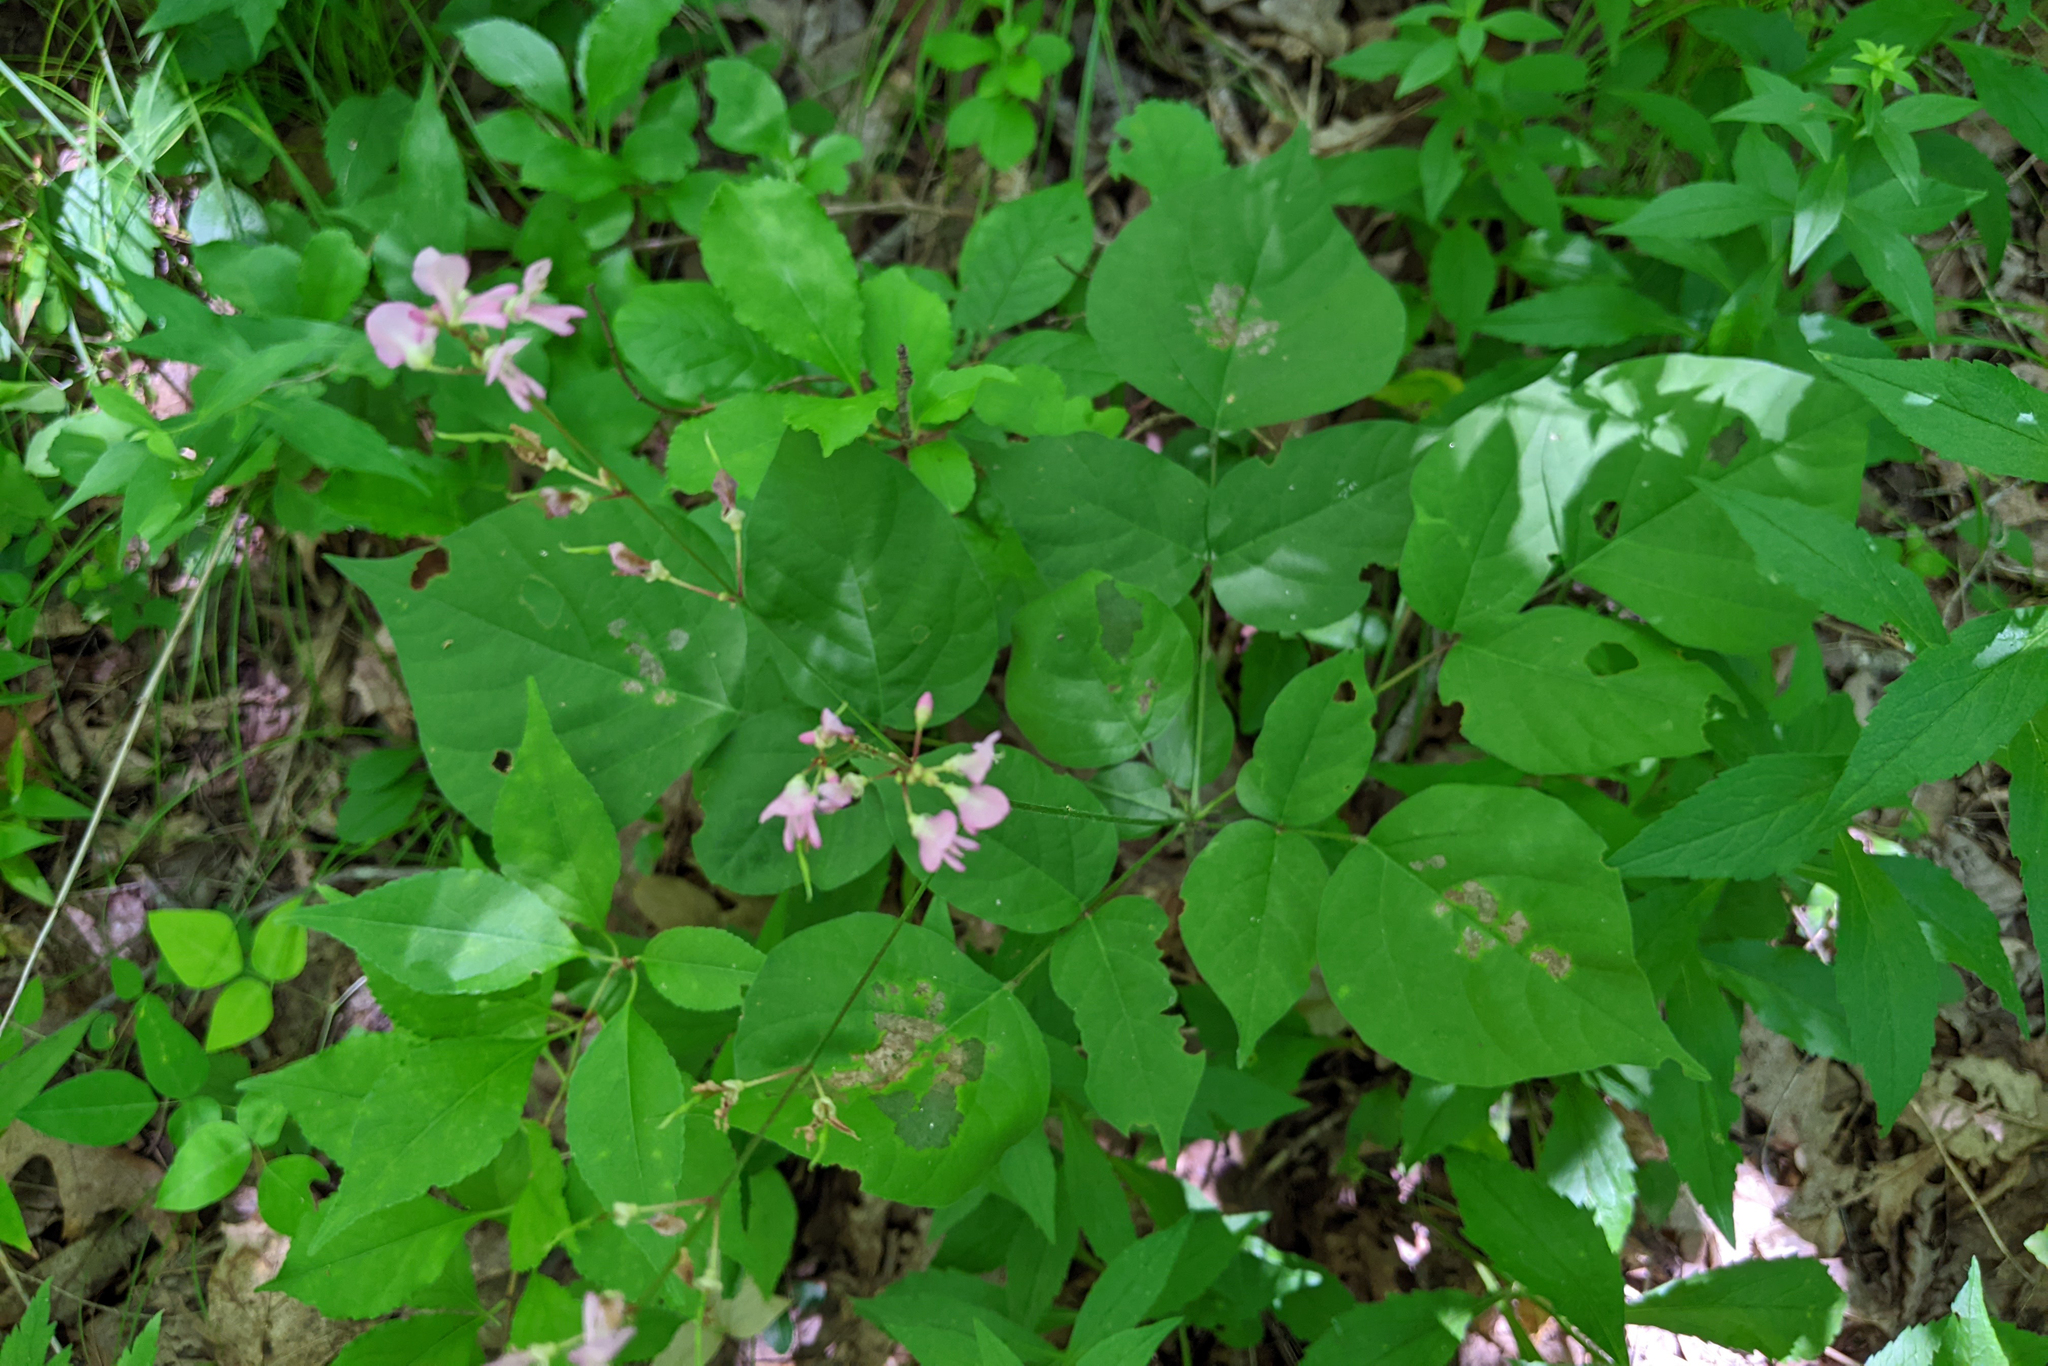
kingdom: Plantae
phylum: Tracheophyta
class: Magnoliopsida
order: Fabales
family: Fabaceae
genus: Hylodesmum
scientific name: Hylodesmum glutinosum
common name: Clustered-leaved tick-trefoil
